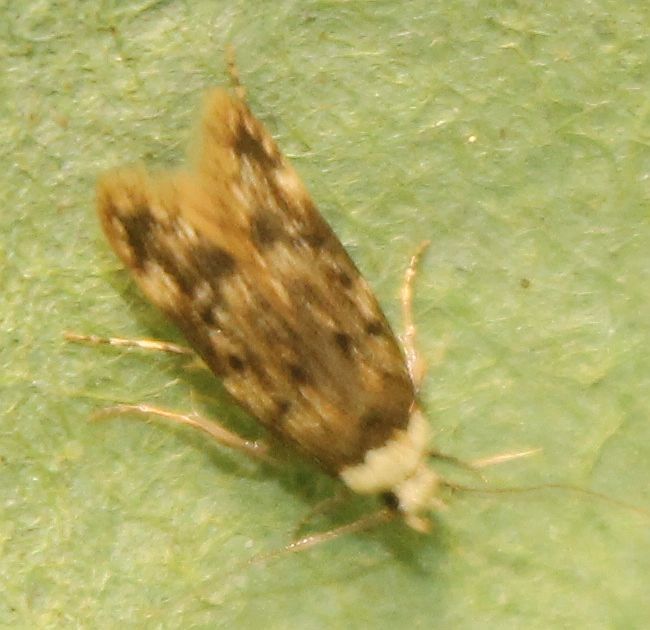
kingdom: Animalia
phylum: Arthropoda
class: Insecta
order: Lepidoptera
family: Oecophoridae
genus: Endrosis
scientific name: Endrosis sarcitrella
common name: White-shouldered house moth
